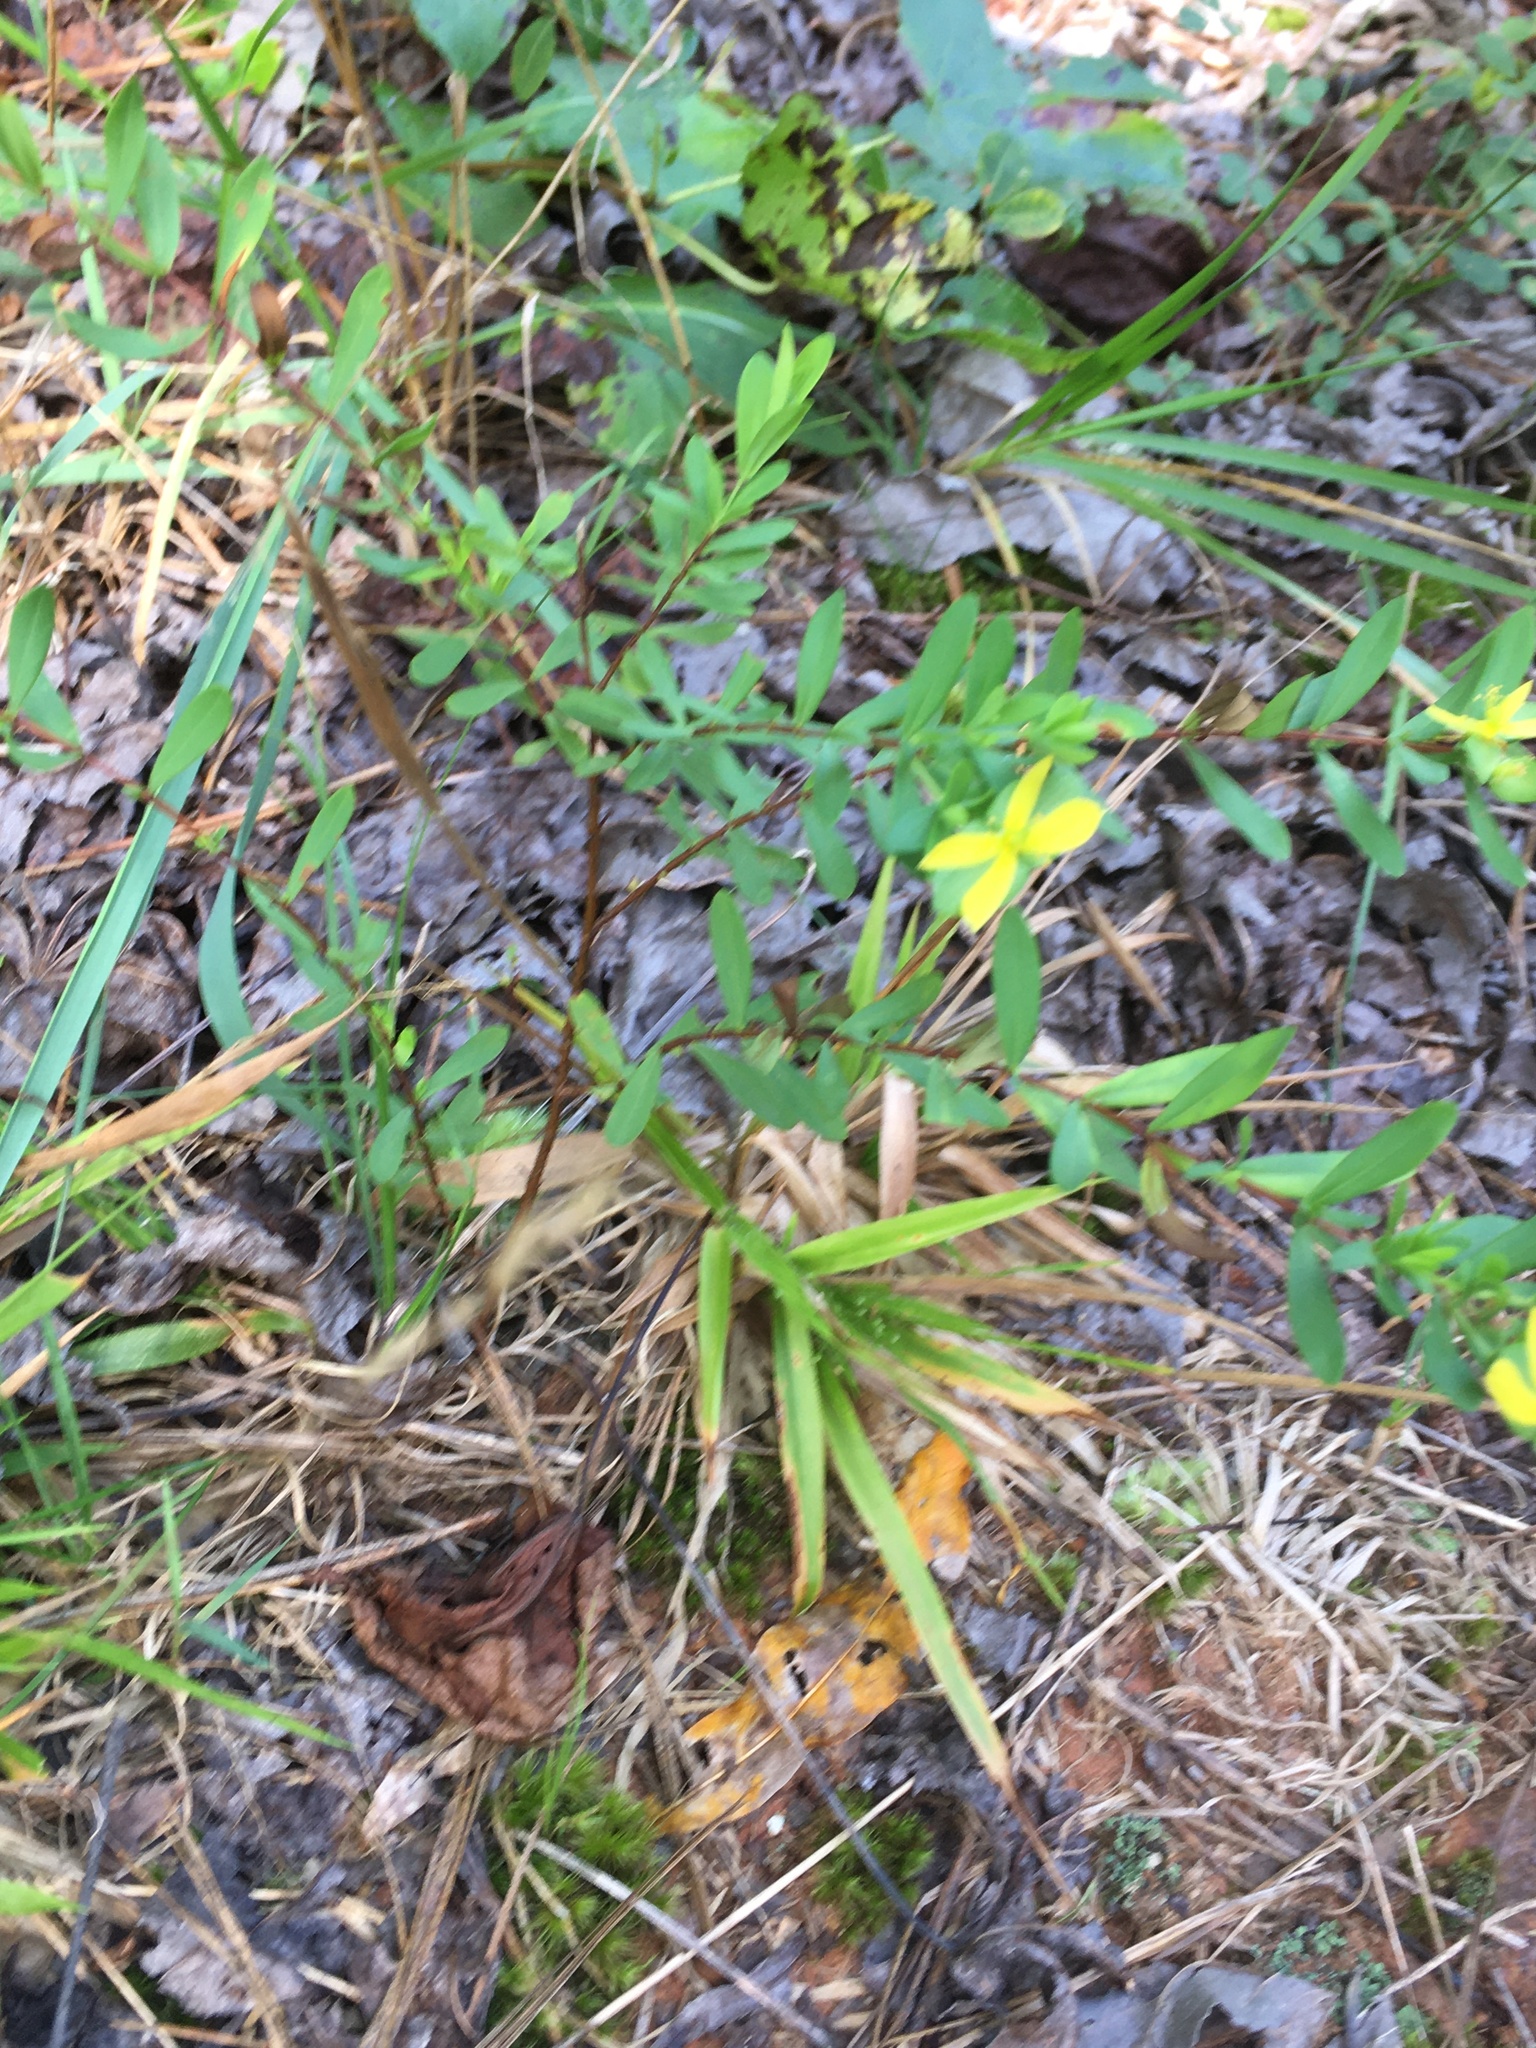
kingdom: Plantae
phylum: Tracheophyta
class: Magnoliopsida
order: Malpighiales
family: Hypericaceae
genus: Hypericum
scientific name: Hypericum hypericoides
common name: St. andrew's cross
